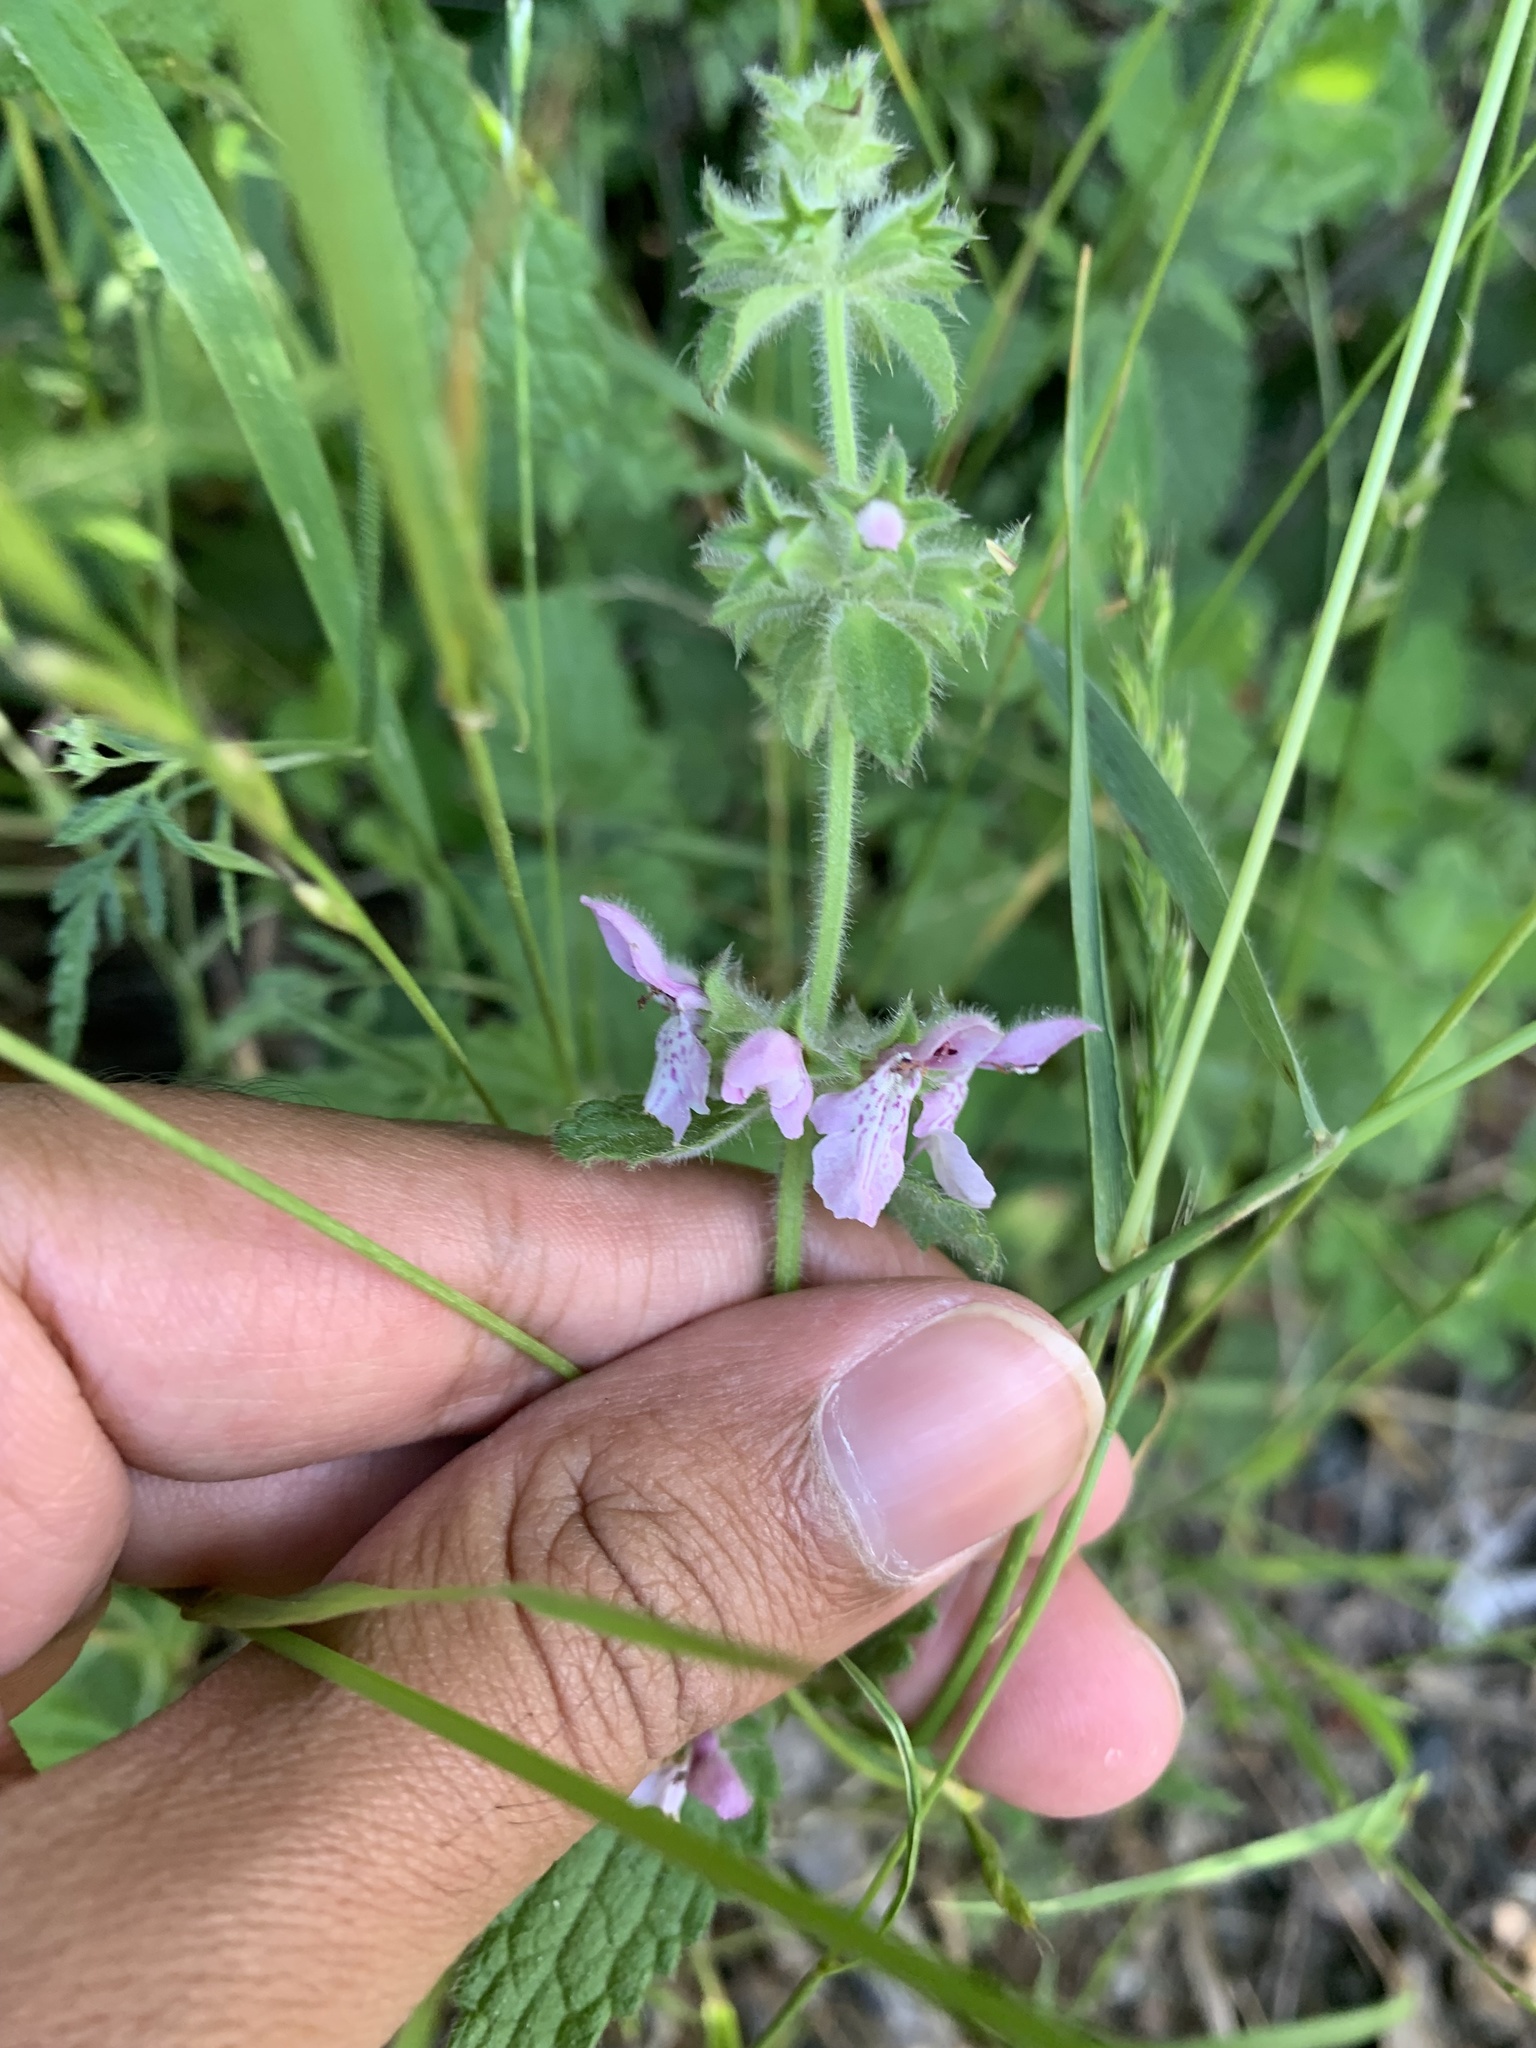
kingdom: Plantae
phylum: Tracheophyta
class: Magnoliopsida
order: Lamiales
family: Lamiaceae
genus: Stachys
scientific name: Stachys rigida
